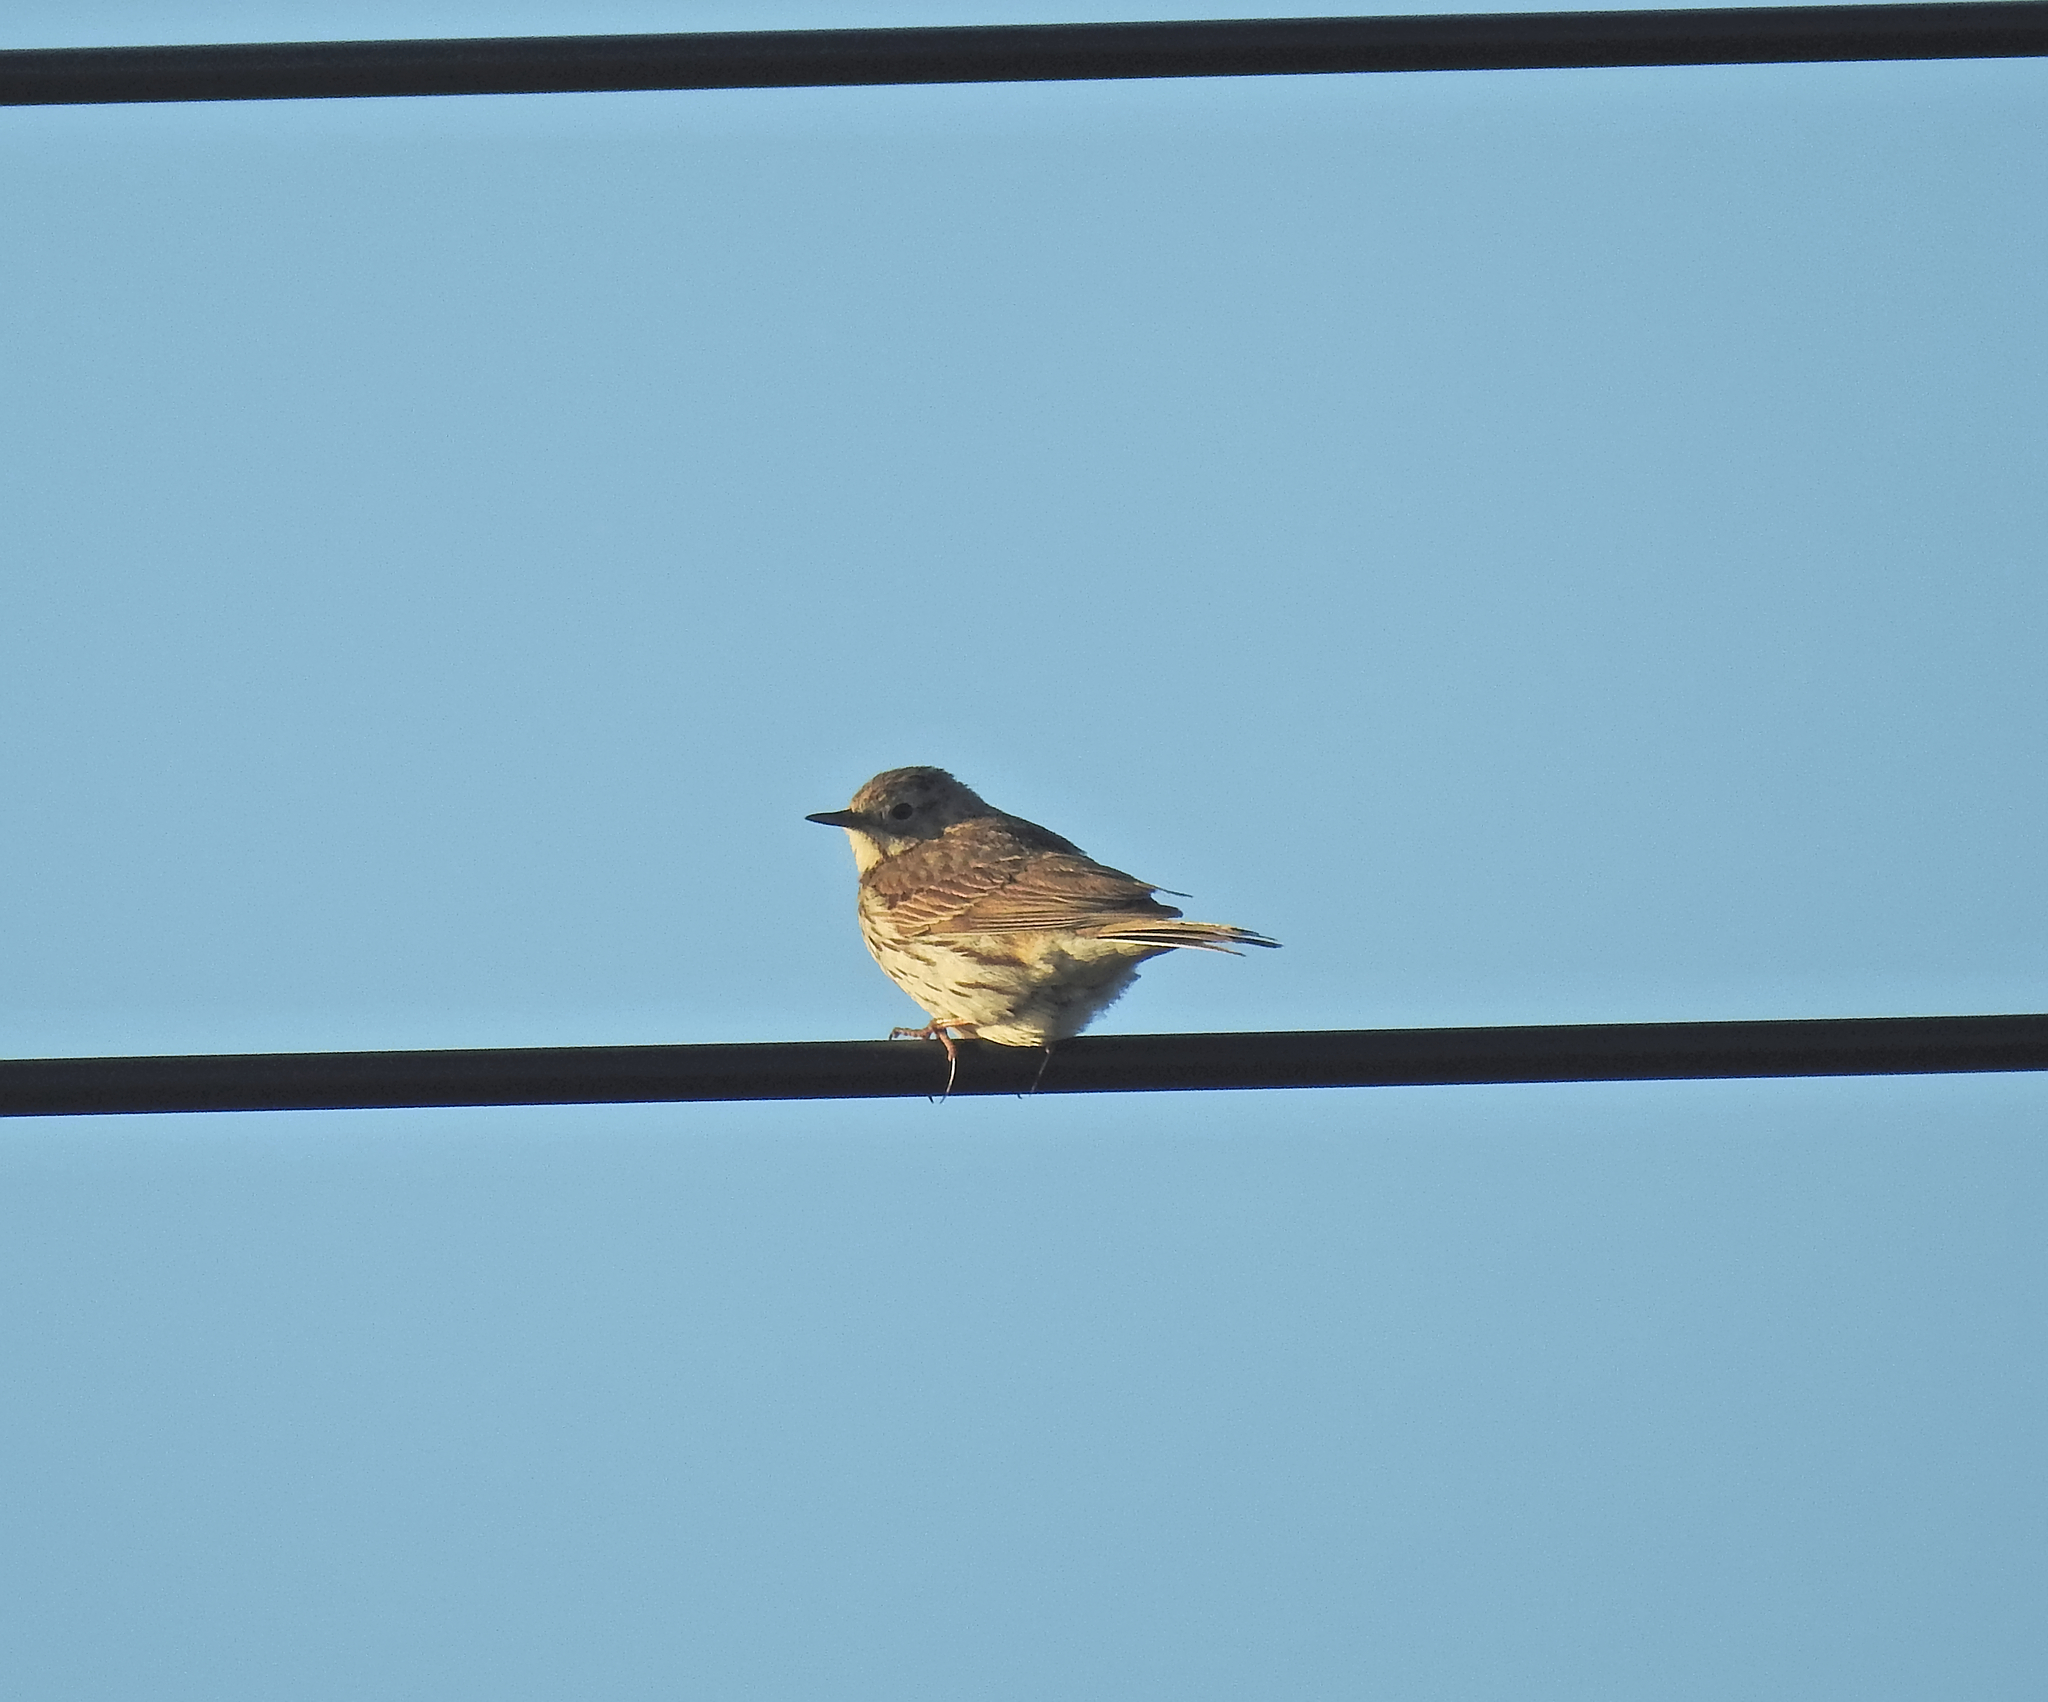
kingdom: Animalia
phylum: Chordata
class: Aves
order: Passeriformes
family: Motacillidae
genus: Anthus
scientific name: Anthus pratensis
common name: Meadow pipit
